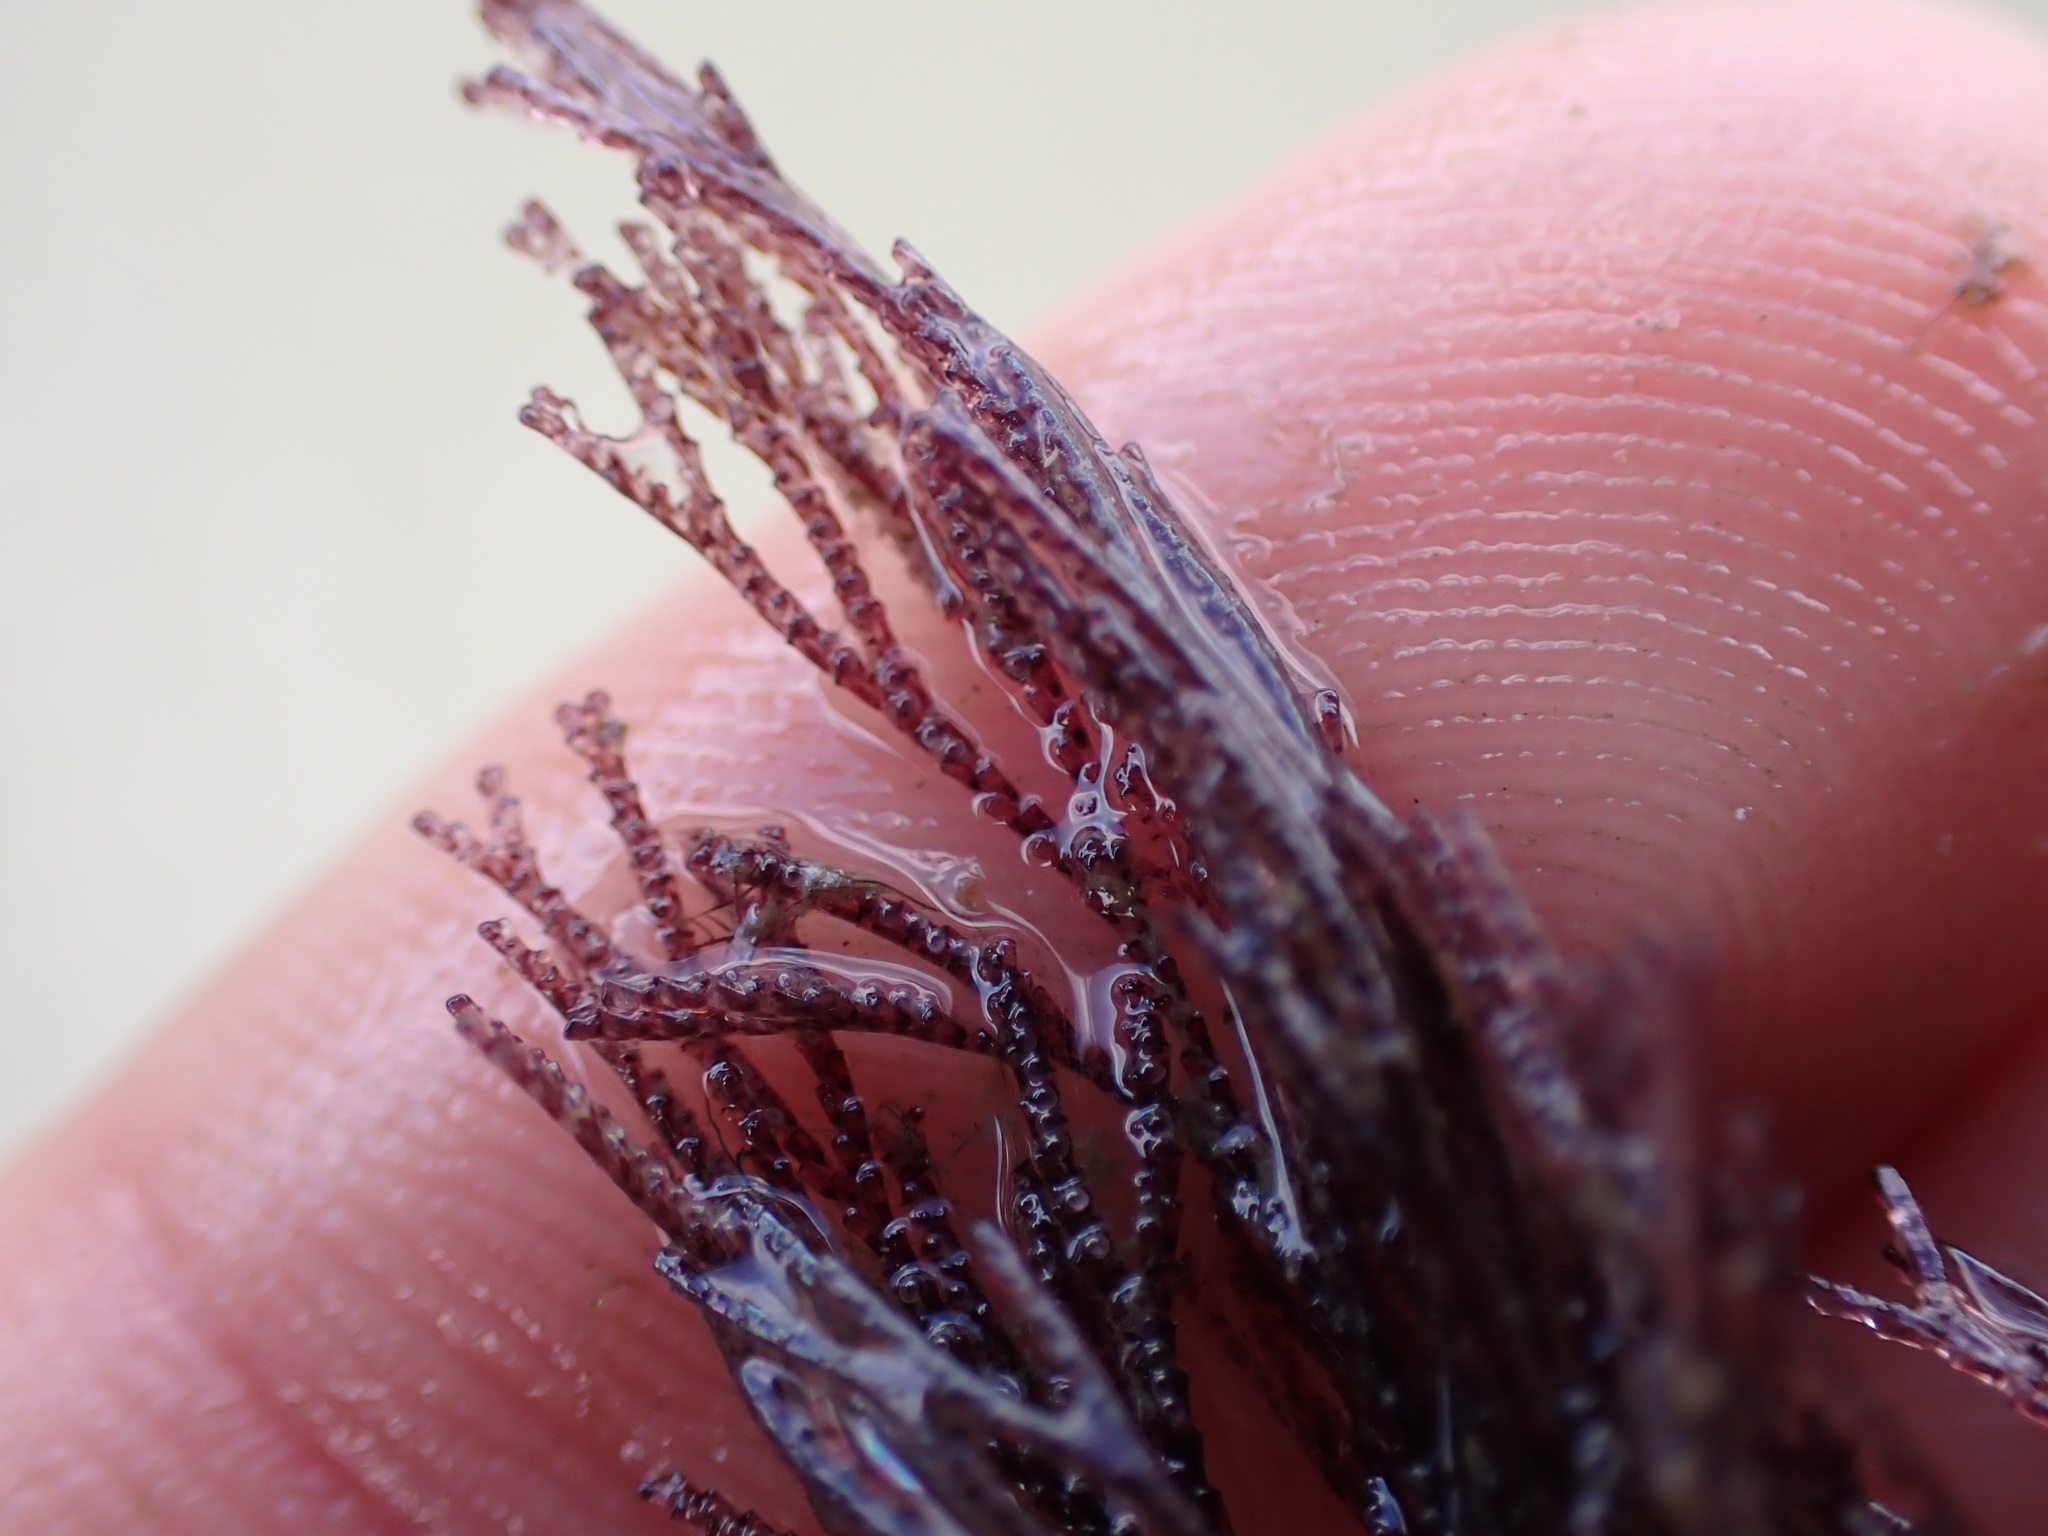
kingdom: Animalia
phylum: Bryozoa
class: Gymnolaemata
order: Cheilostomatida
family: Bugulidae
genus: Bugula
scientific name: Bugula neritina
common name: Brown bryozoan
